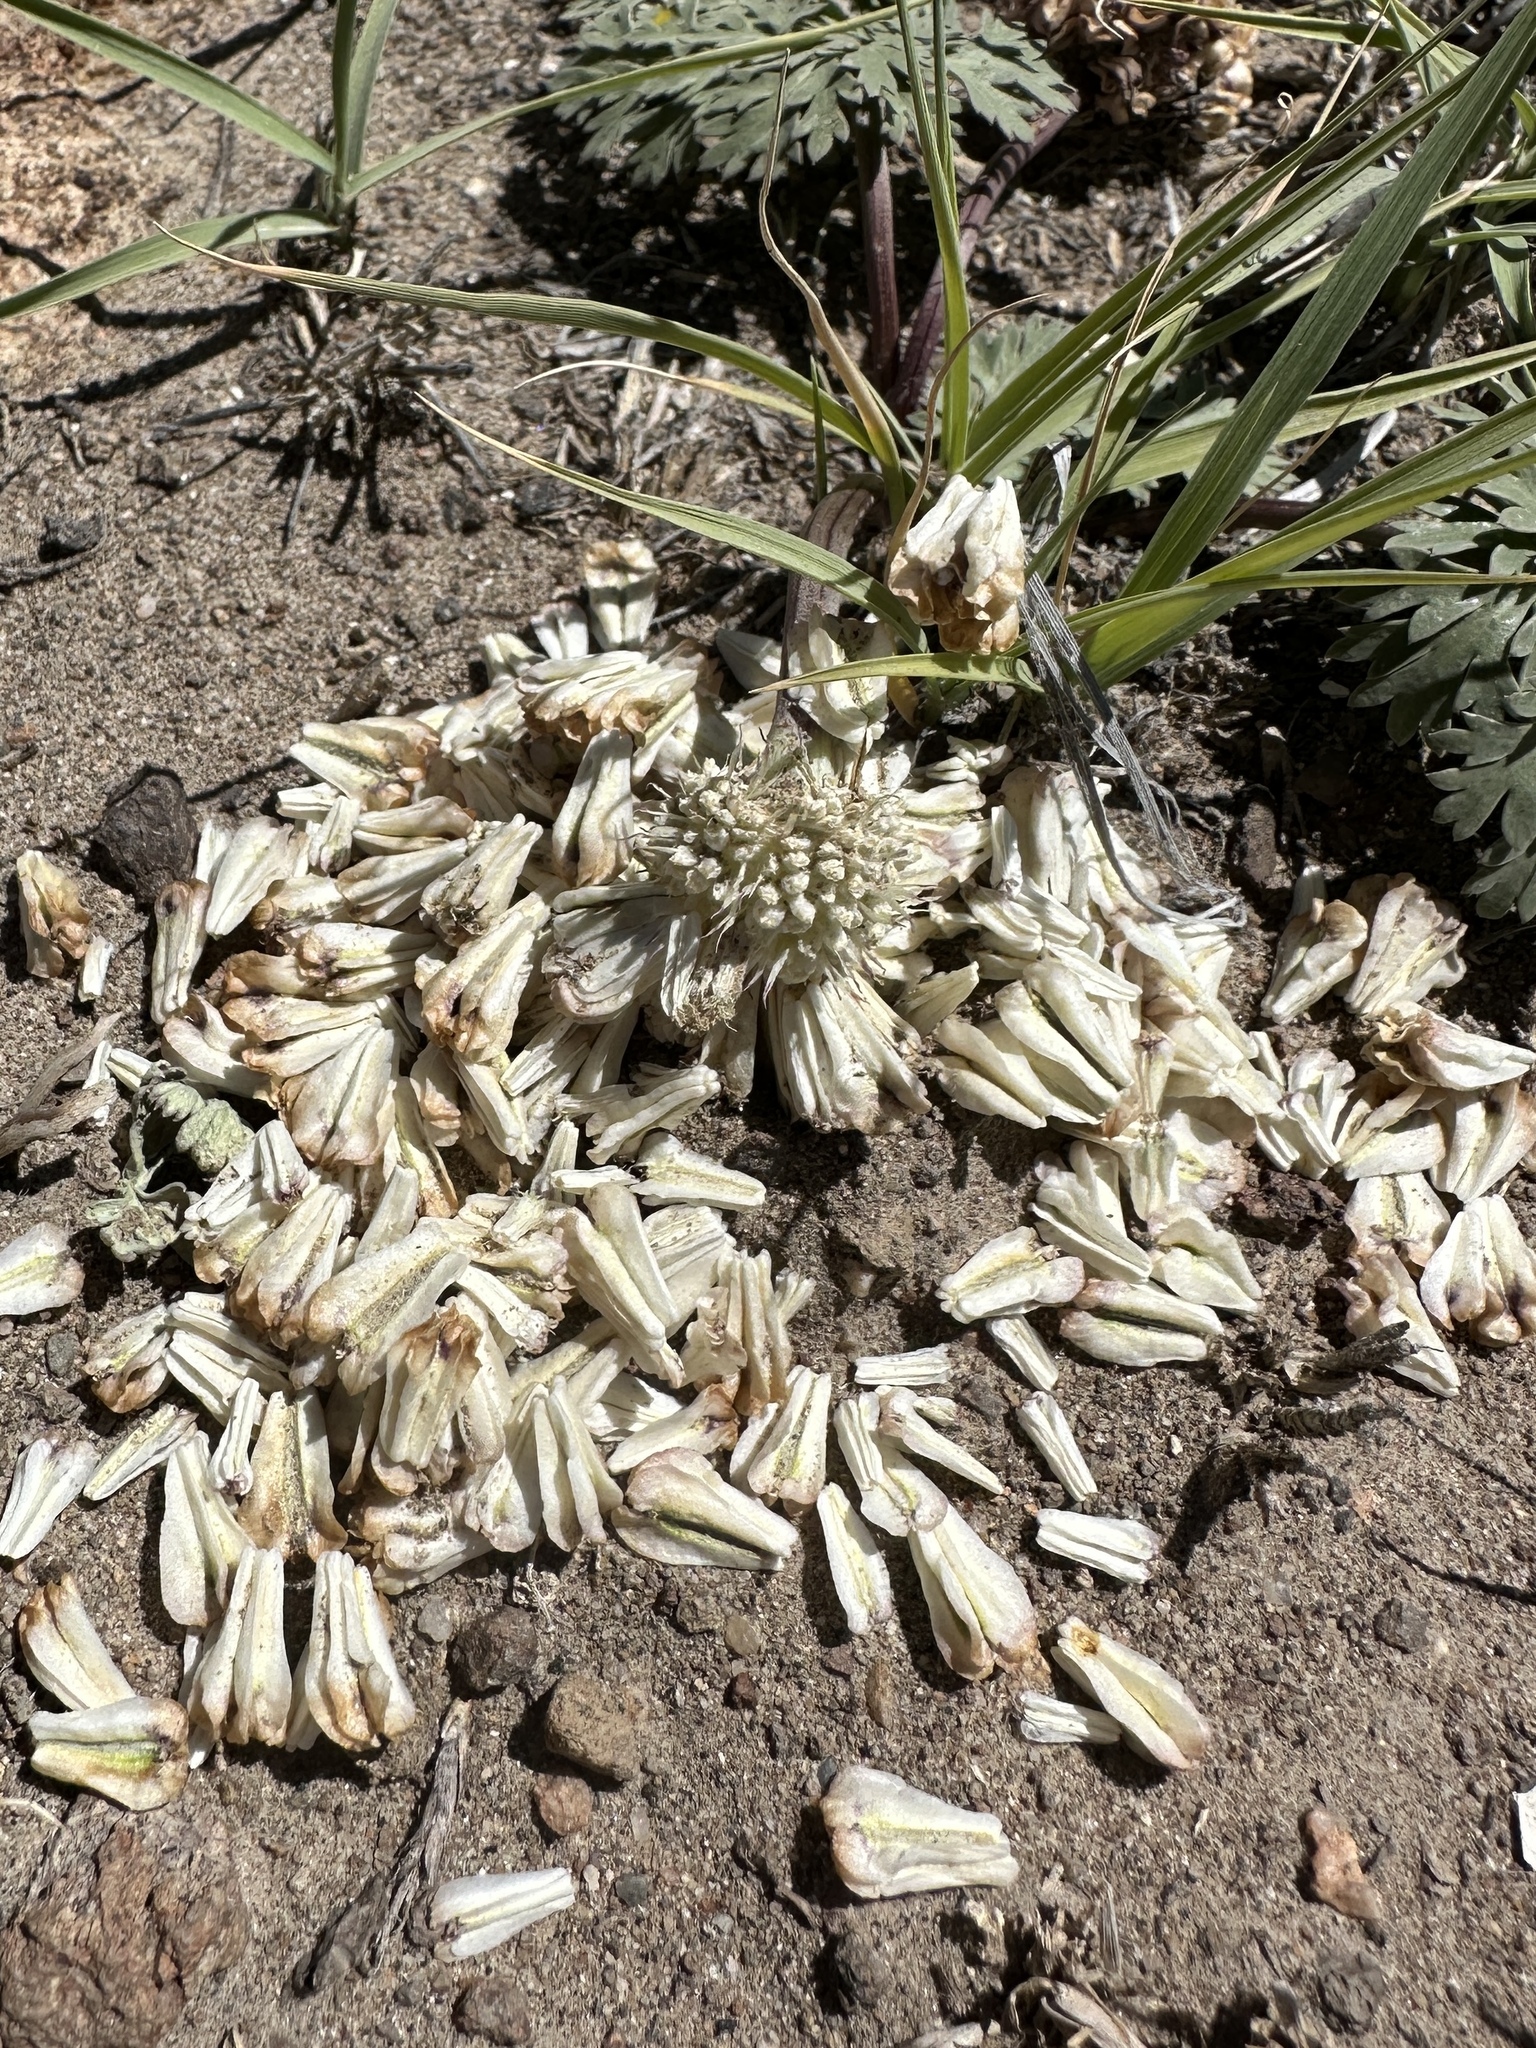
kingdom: Plantae
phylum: Tracheophyta
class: Magnoliopsida
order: Apiales
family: Apiaceae
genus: Cymopterus
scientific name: Cymopterus globosus
